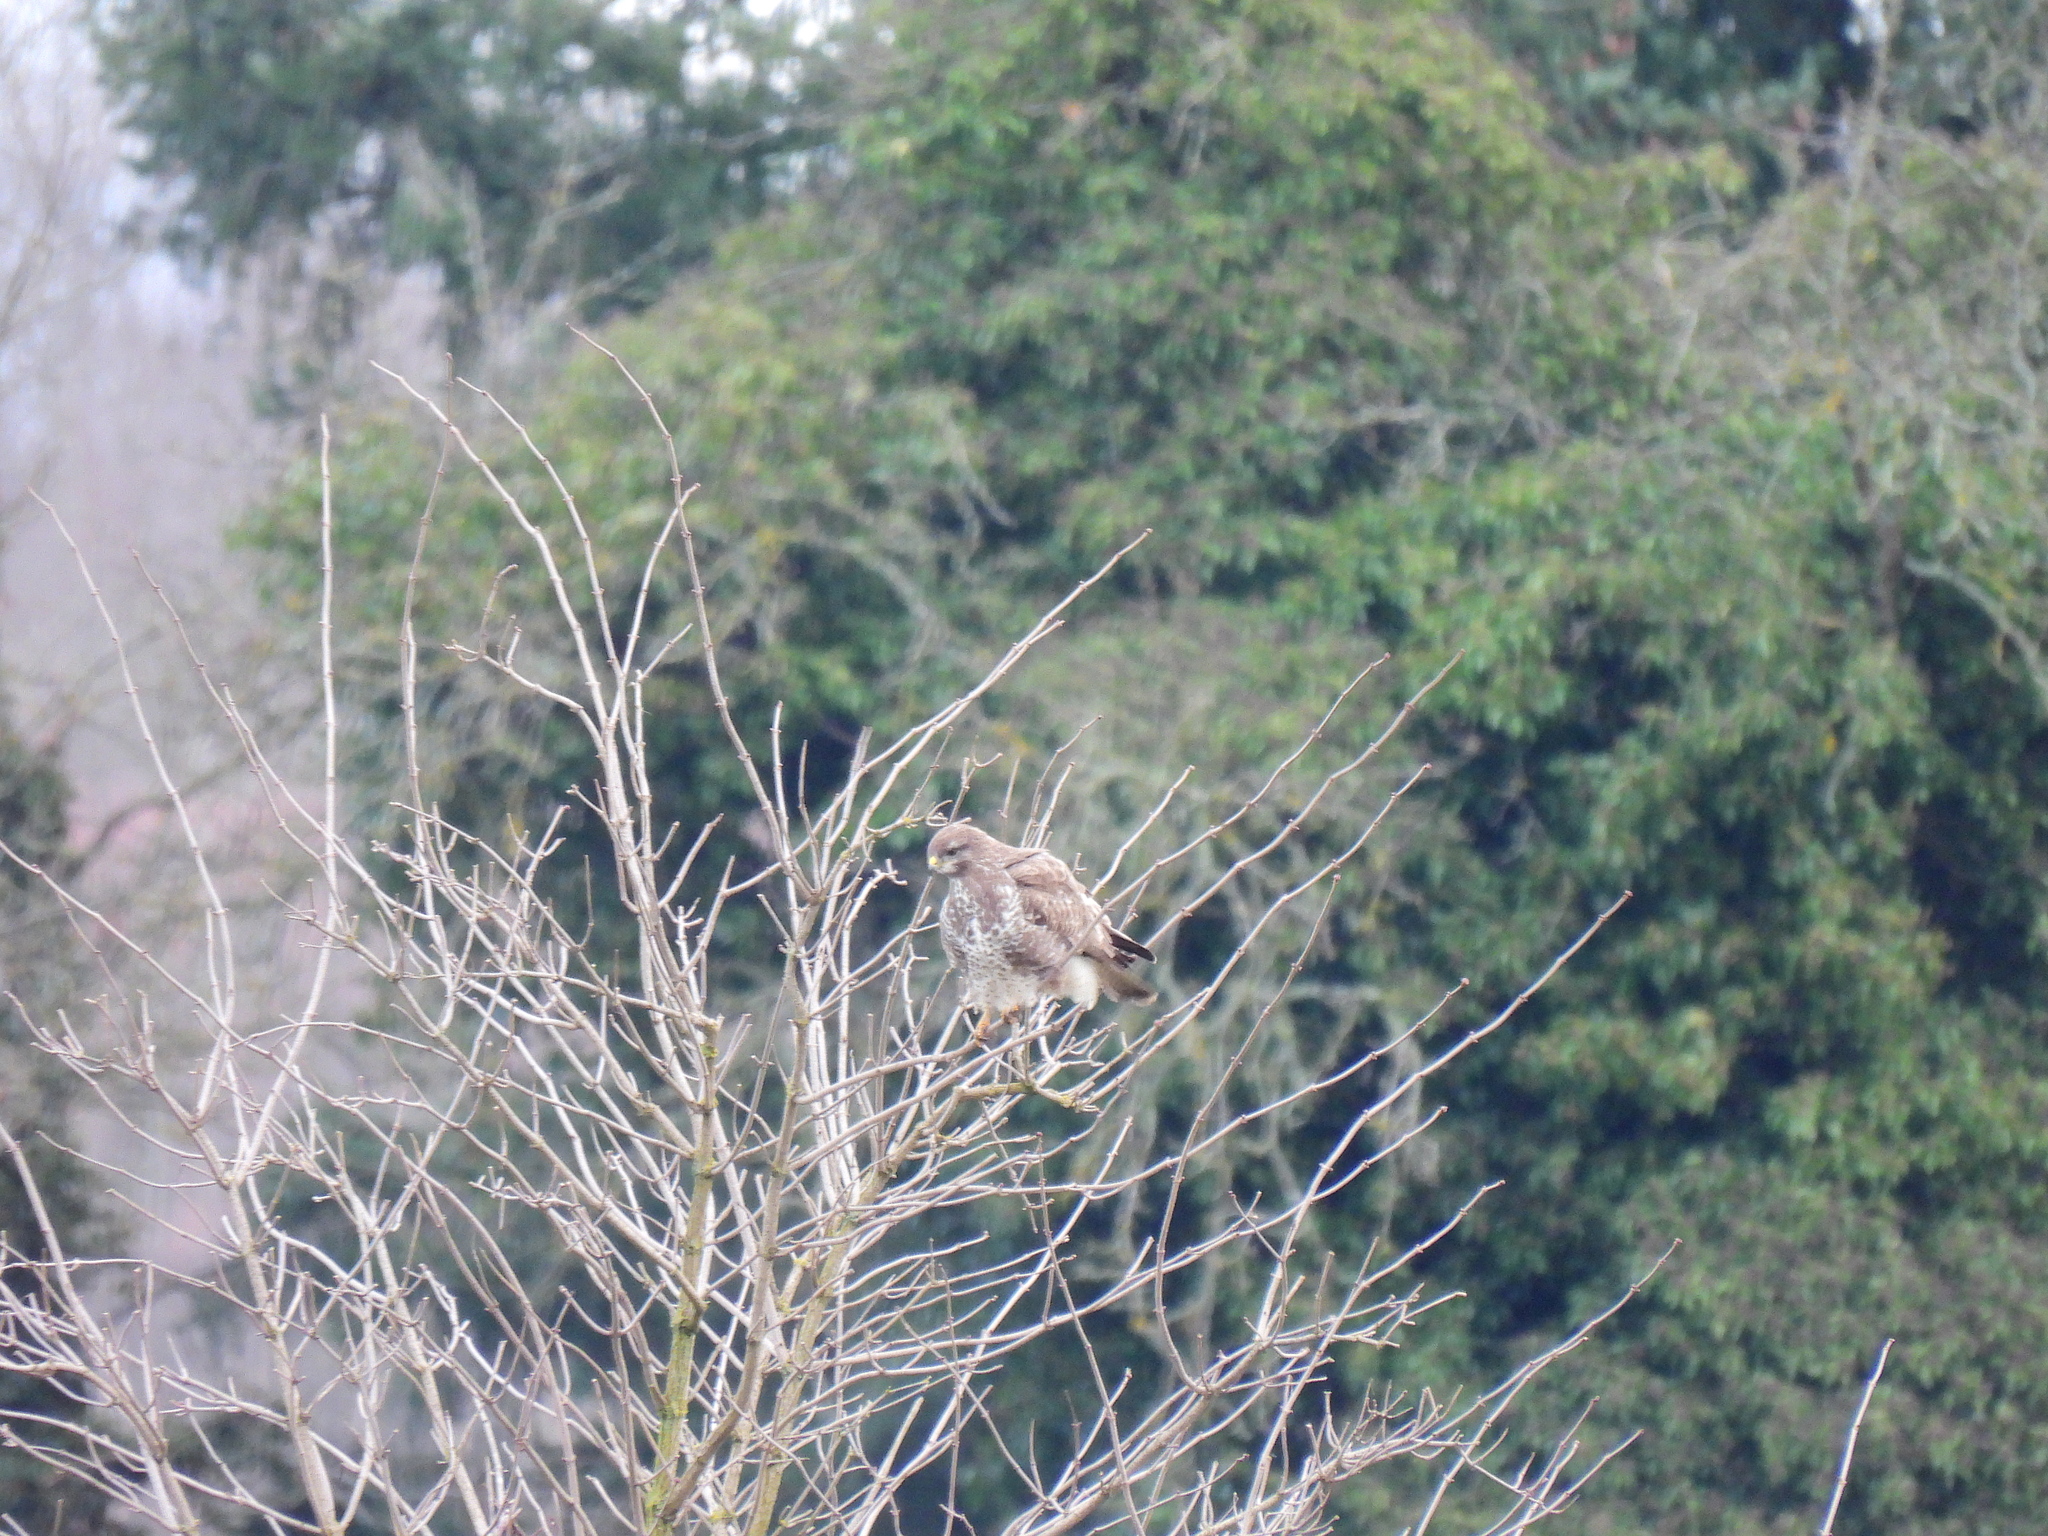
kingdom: Animalia
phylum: Chordata
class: Aves
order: Accipitriformes
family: Accipitridae
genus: Buteo
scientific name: Buteo buteo
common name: Common buzzard
